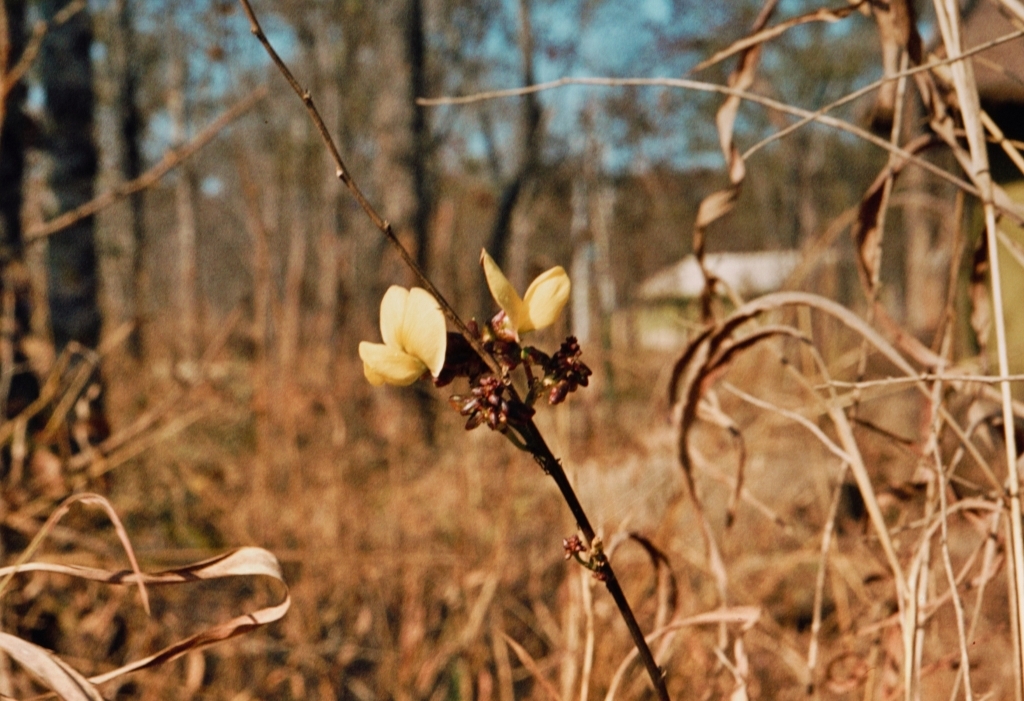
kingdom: Plantae
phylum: Tracheophyta
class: Magnoliopsida
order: Fabales
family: Fabaceae
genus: Sphenostylis
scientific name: Sphenostylis erecta
